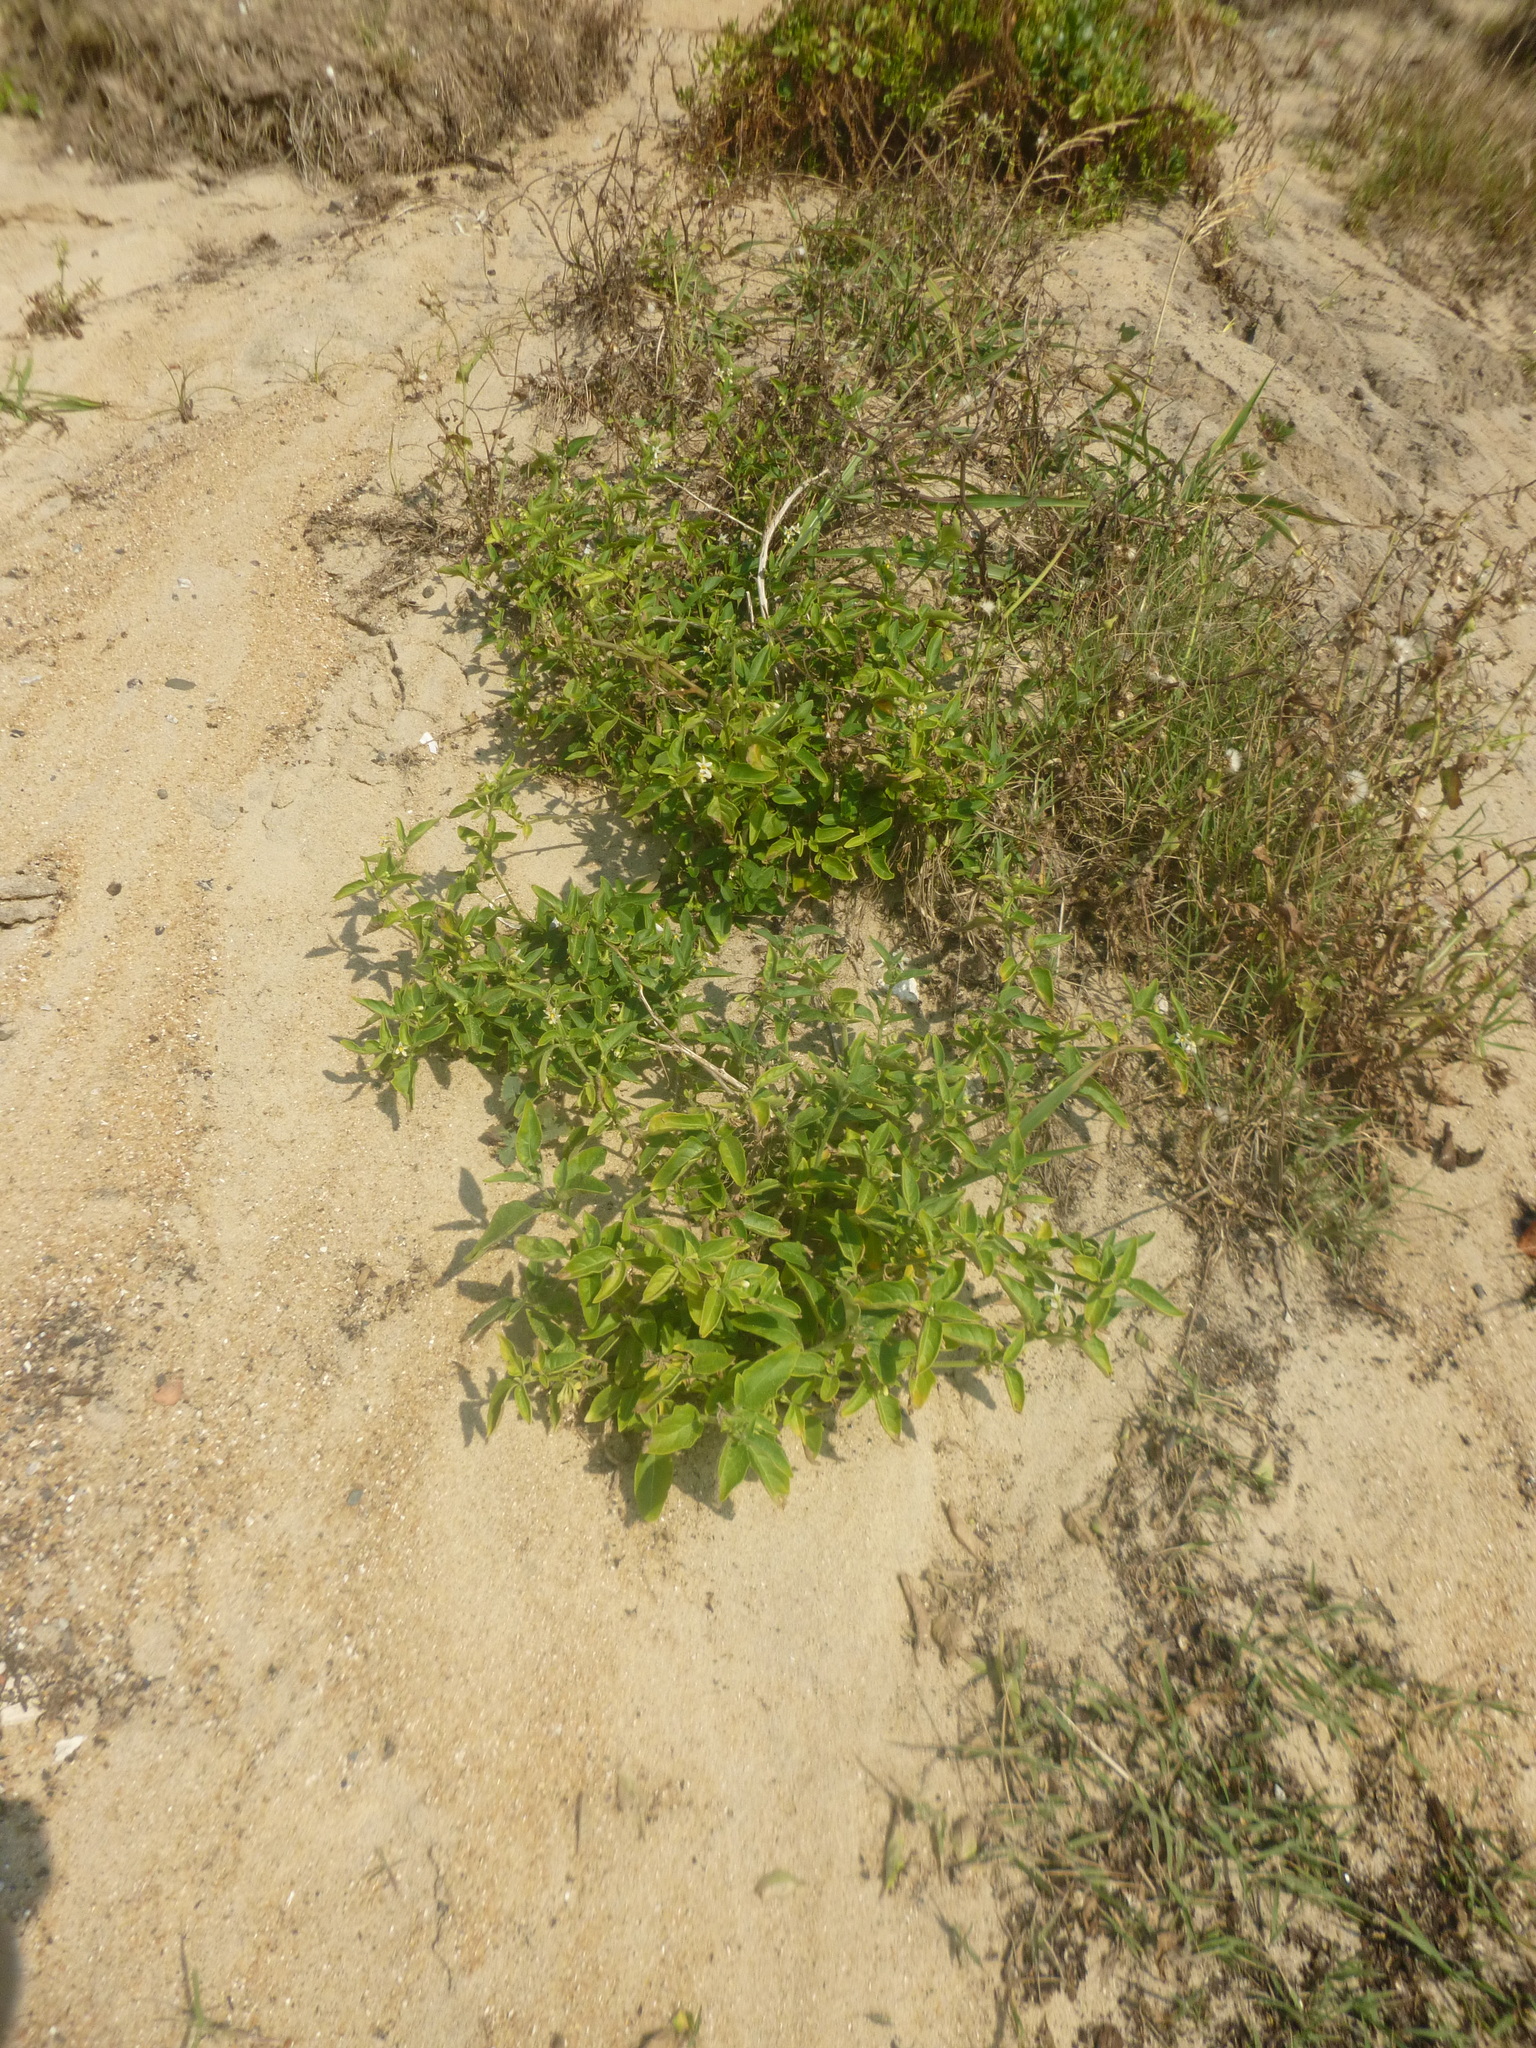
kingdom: Plantae
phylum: Tracheophyta
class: Magnoliopsida
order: Solanales
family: Solanaceae
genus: Solanum
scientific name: Solanum chenopodioides
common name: Tall nightshade
